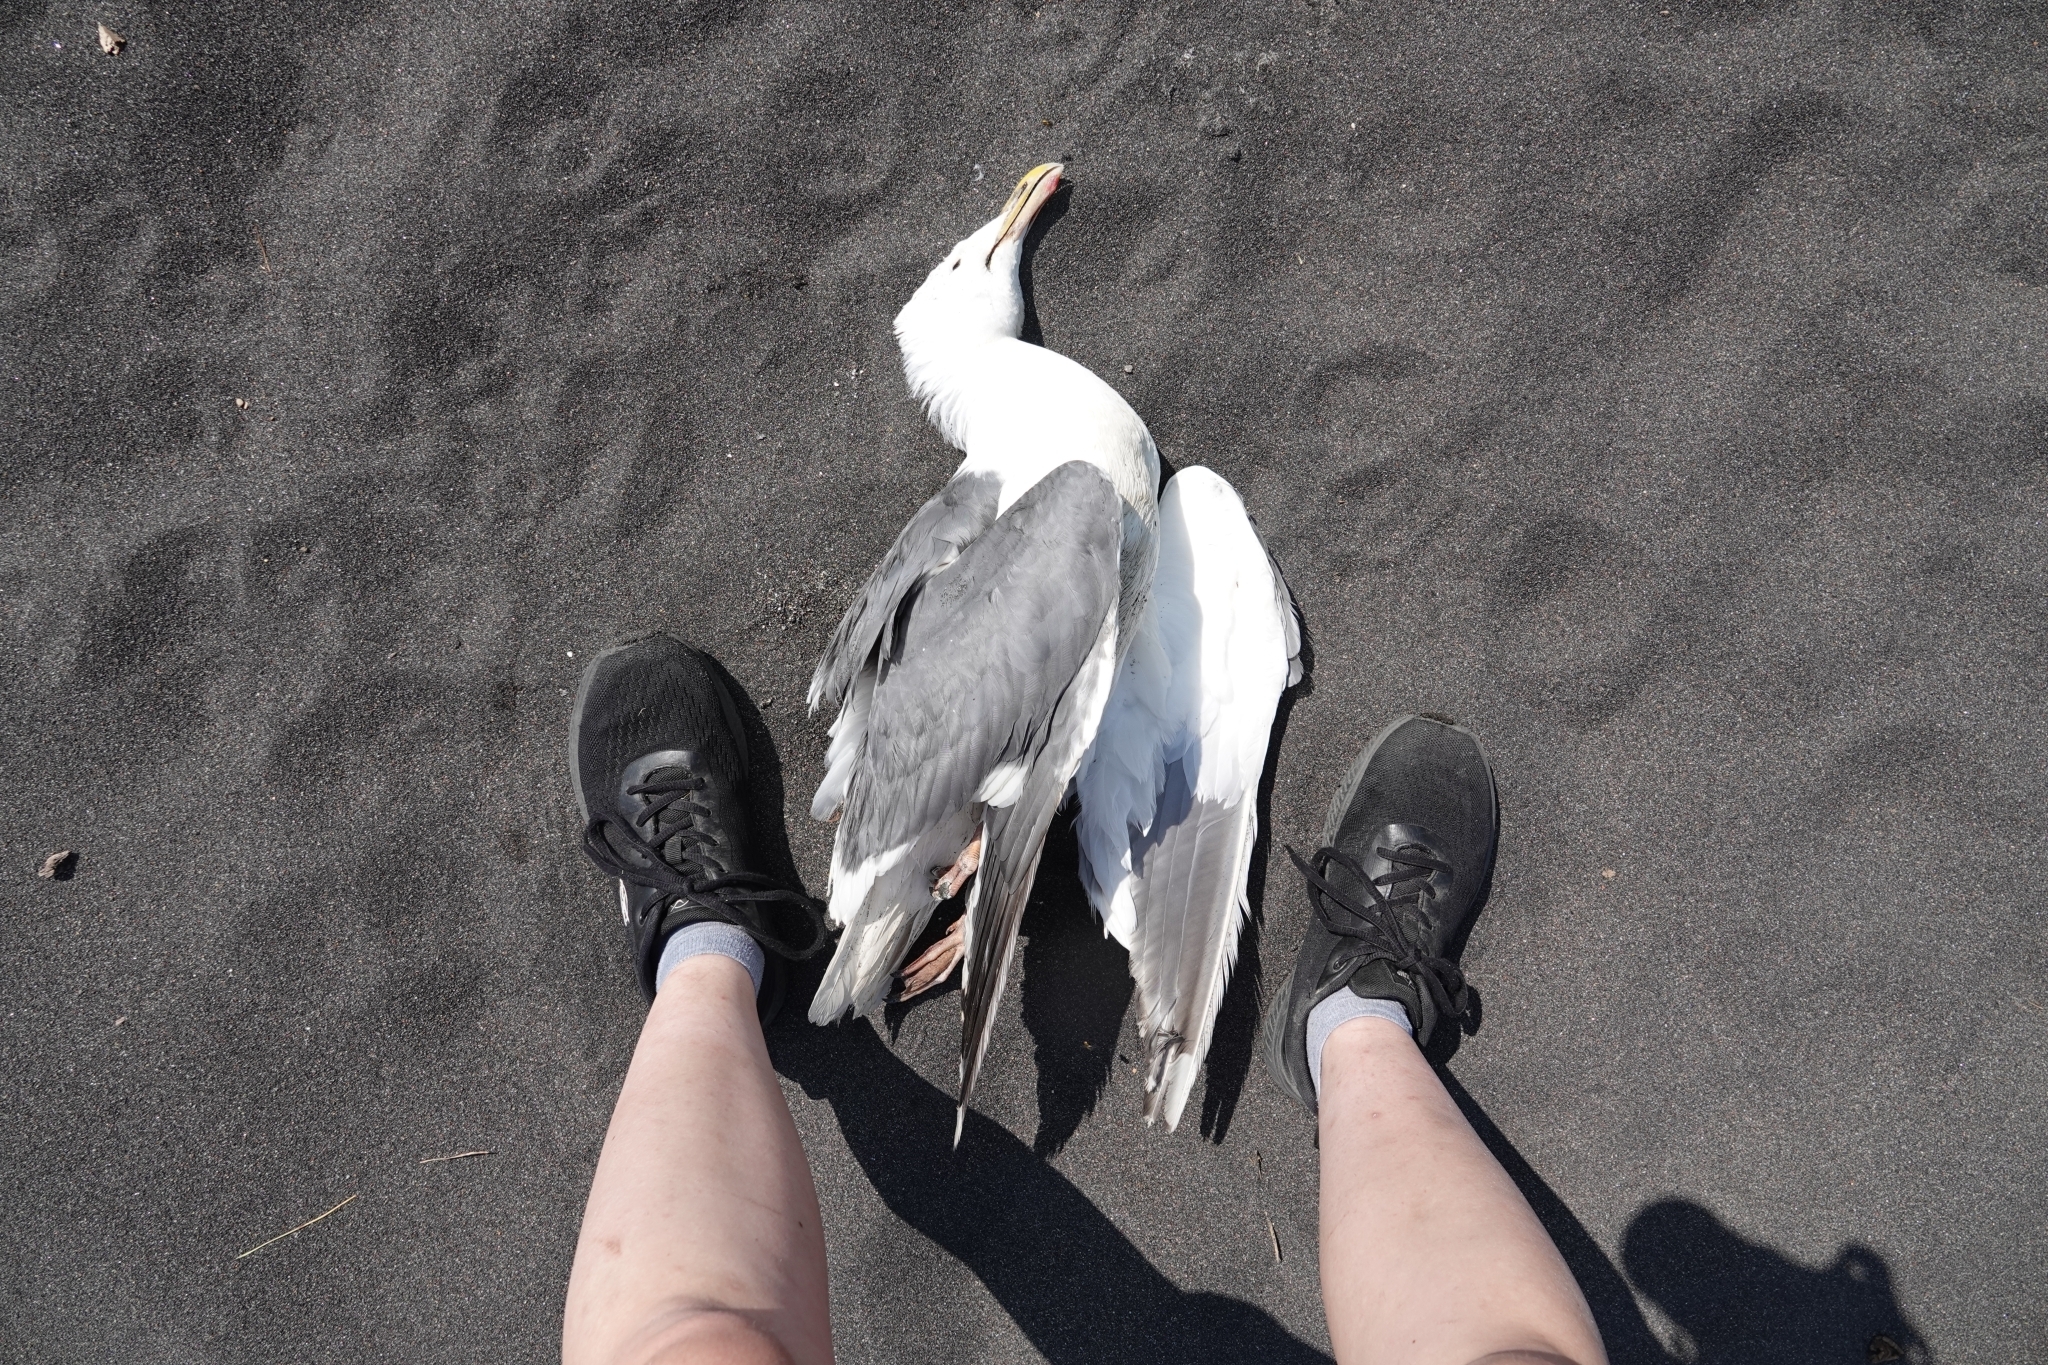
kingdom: Animalia
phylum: Chordata
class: Aves
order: Charadriiformes
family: Laridae
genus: Larus
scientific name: Larus schistisagus
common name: Slaty-backed gull
